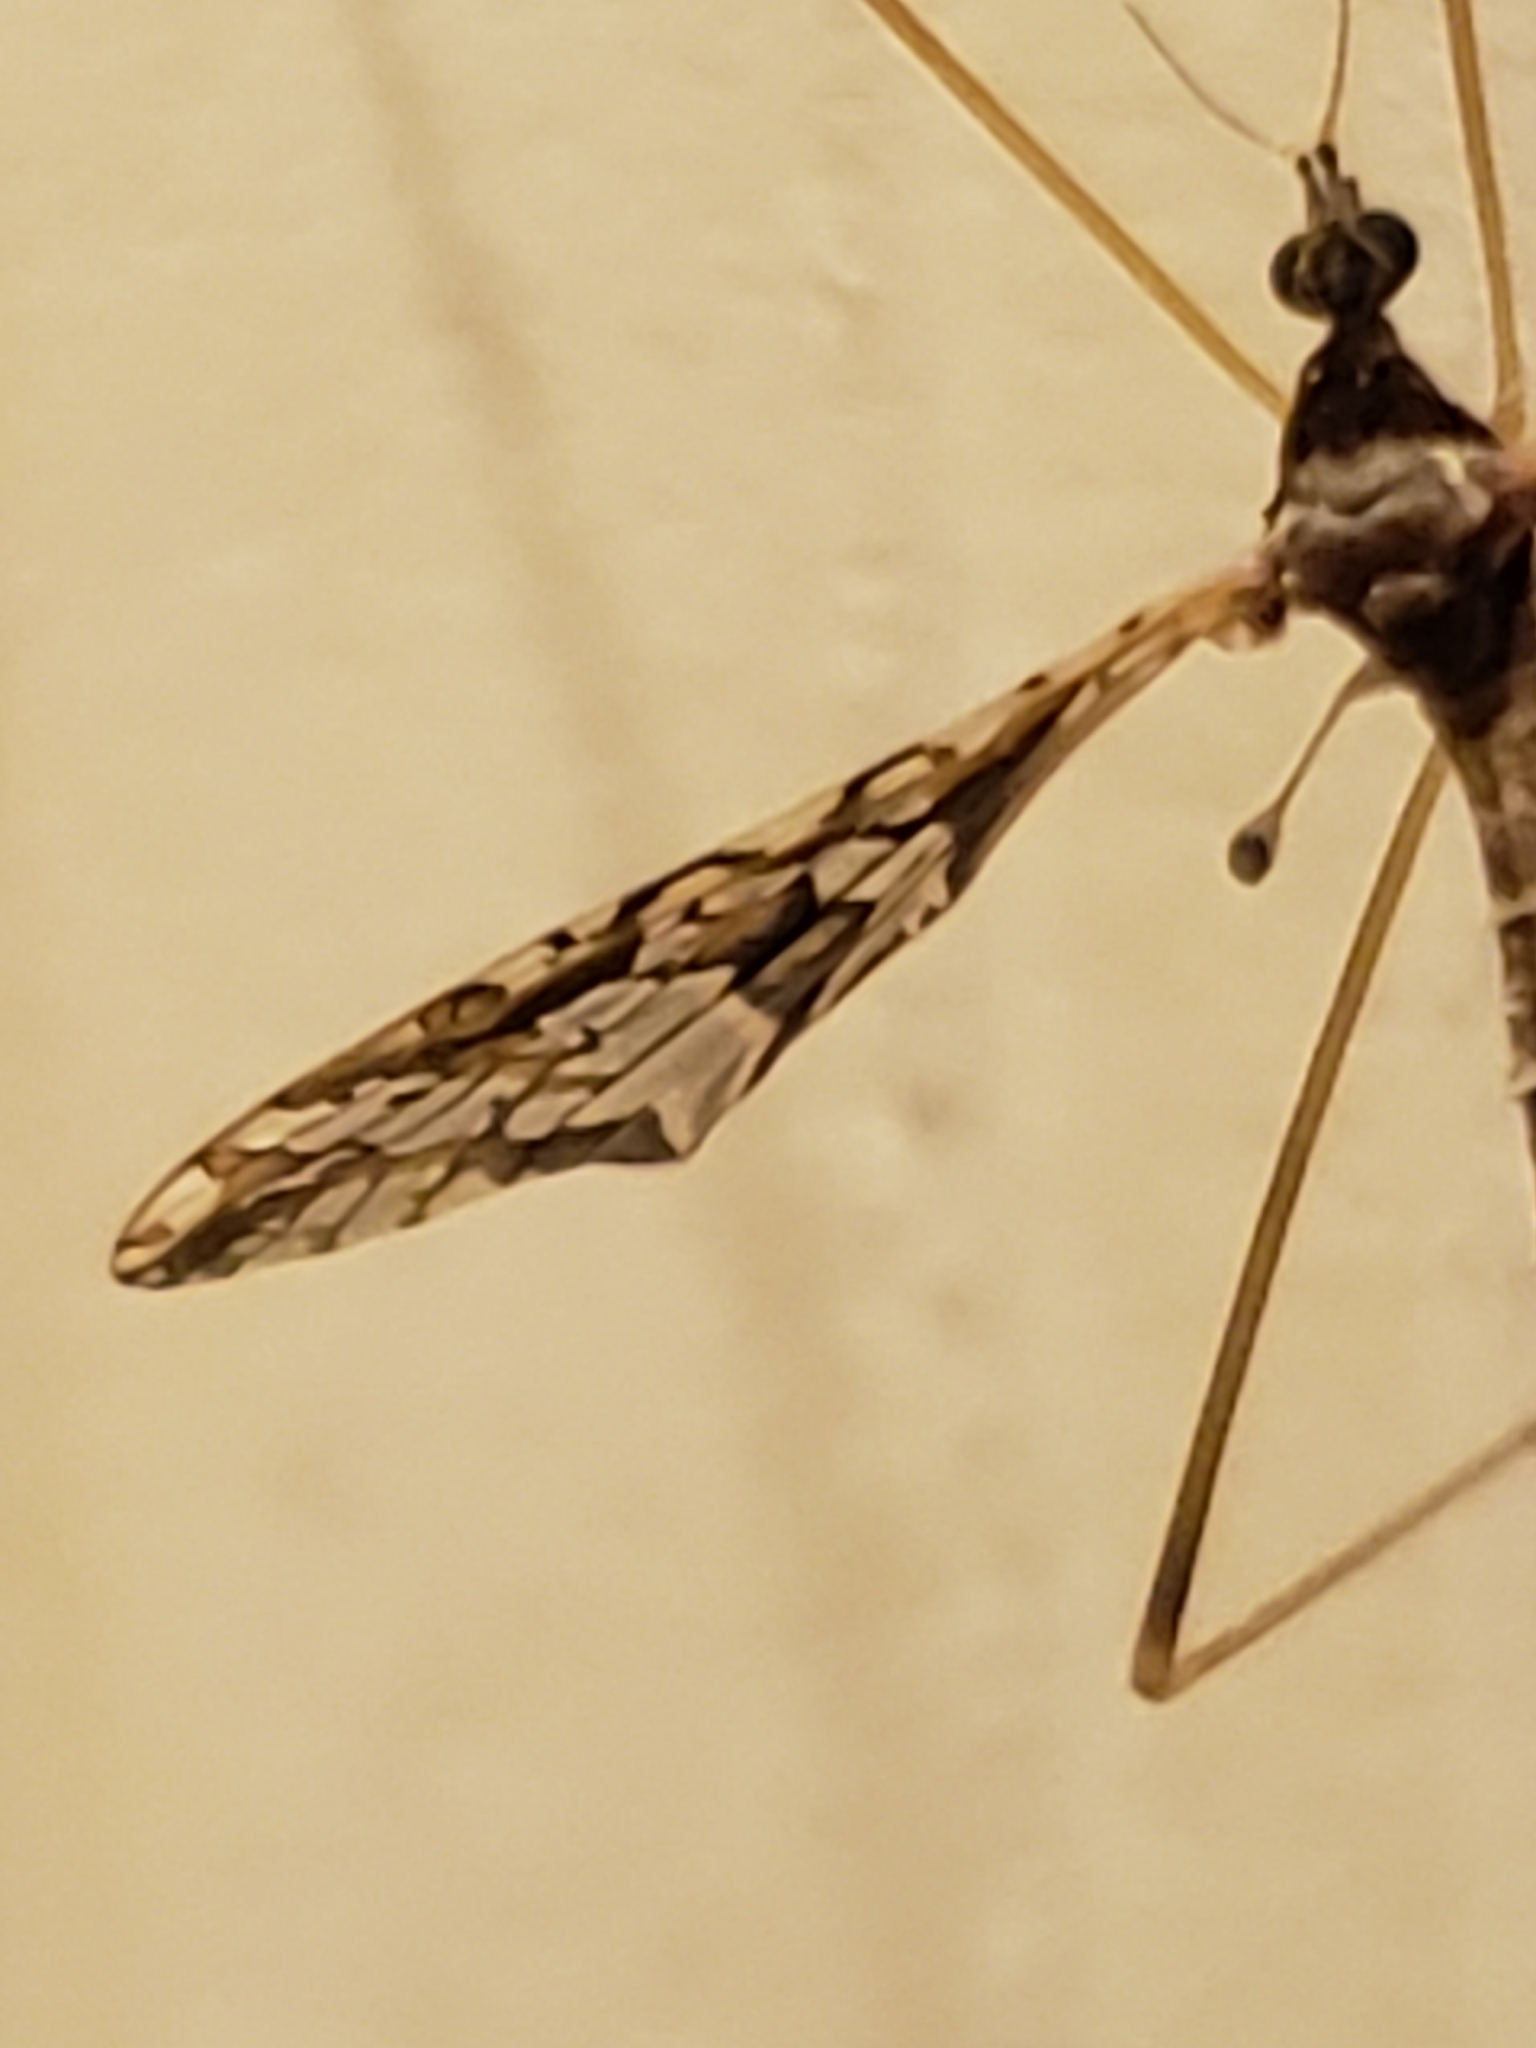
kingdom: Animalia
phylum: Arthropoda
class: Insecta
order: Diptera
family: Limoniidae
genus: Epiphragma
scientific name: Epiphragma solatrix
